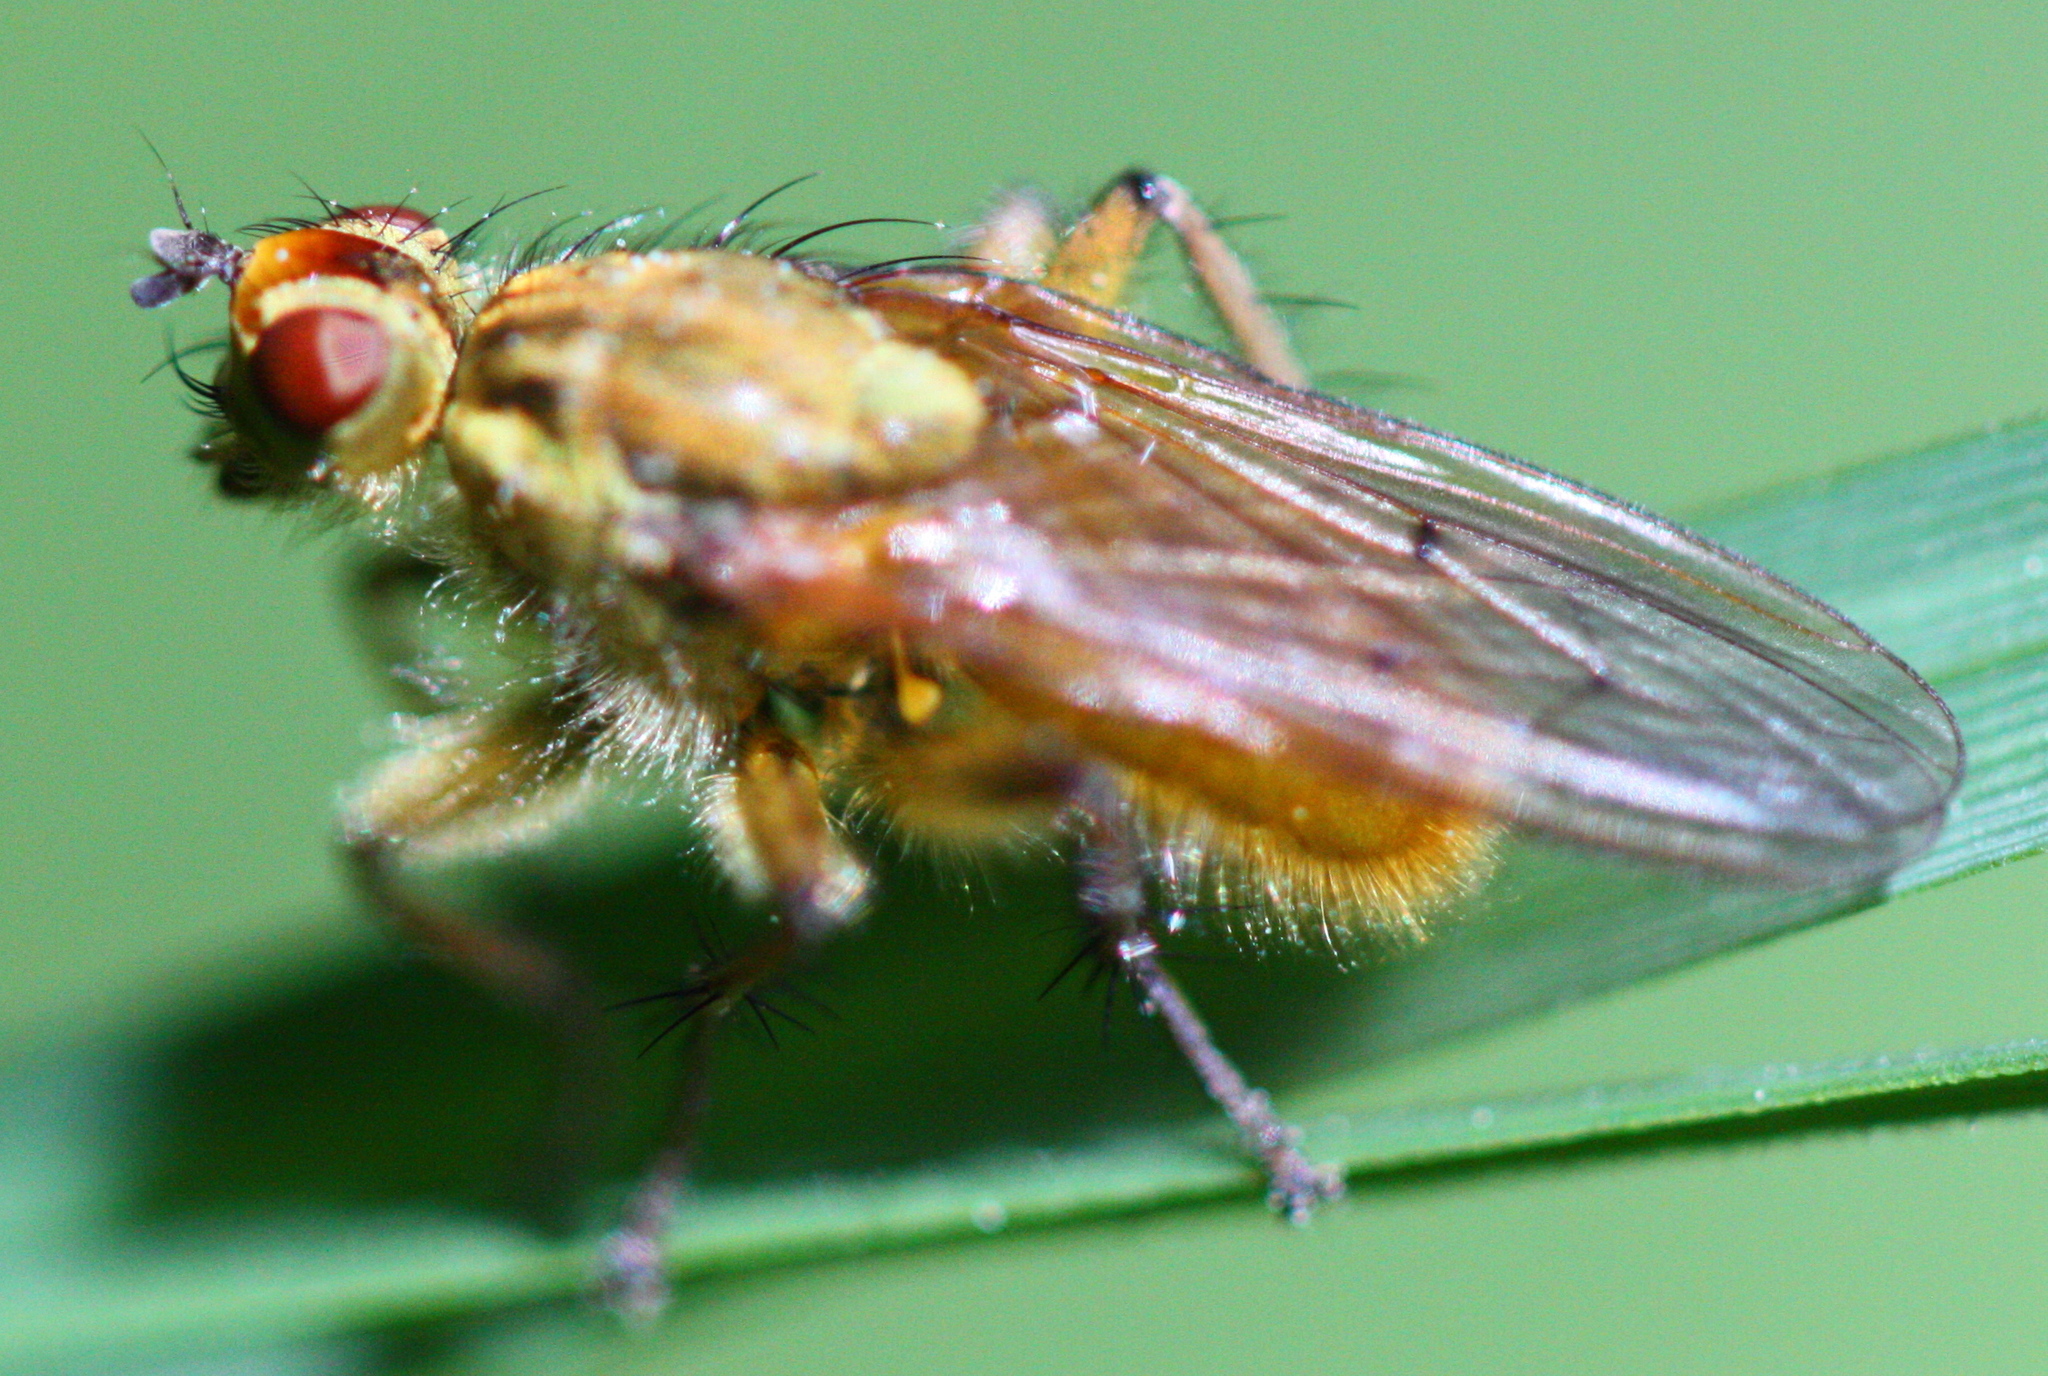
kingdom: Animalia
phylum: Arthropoda
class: Insecta
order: Diptera
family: Scathophagidae
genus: Scathophaga
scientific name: Scathophaga stercoraria
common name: Yellow dung fly
